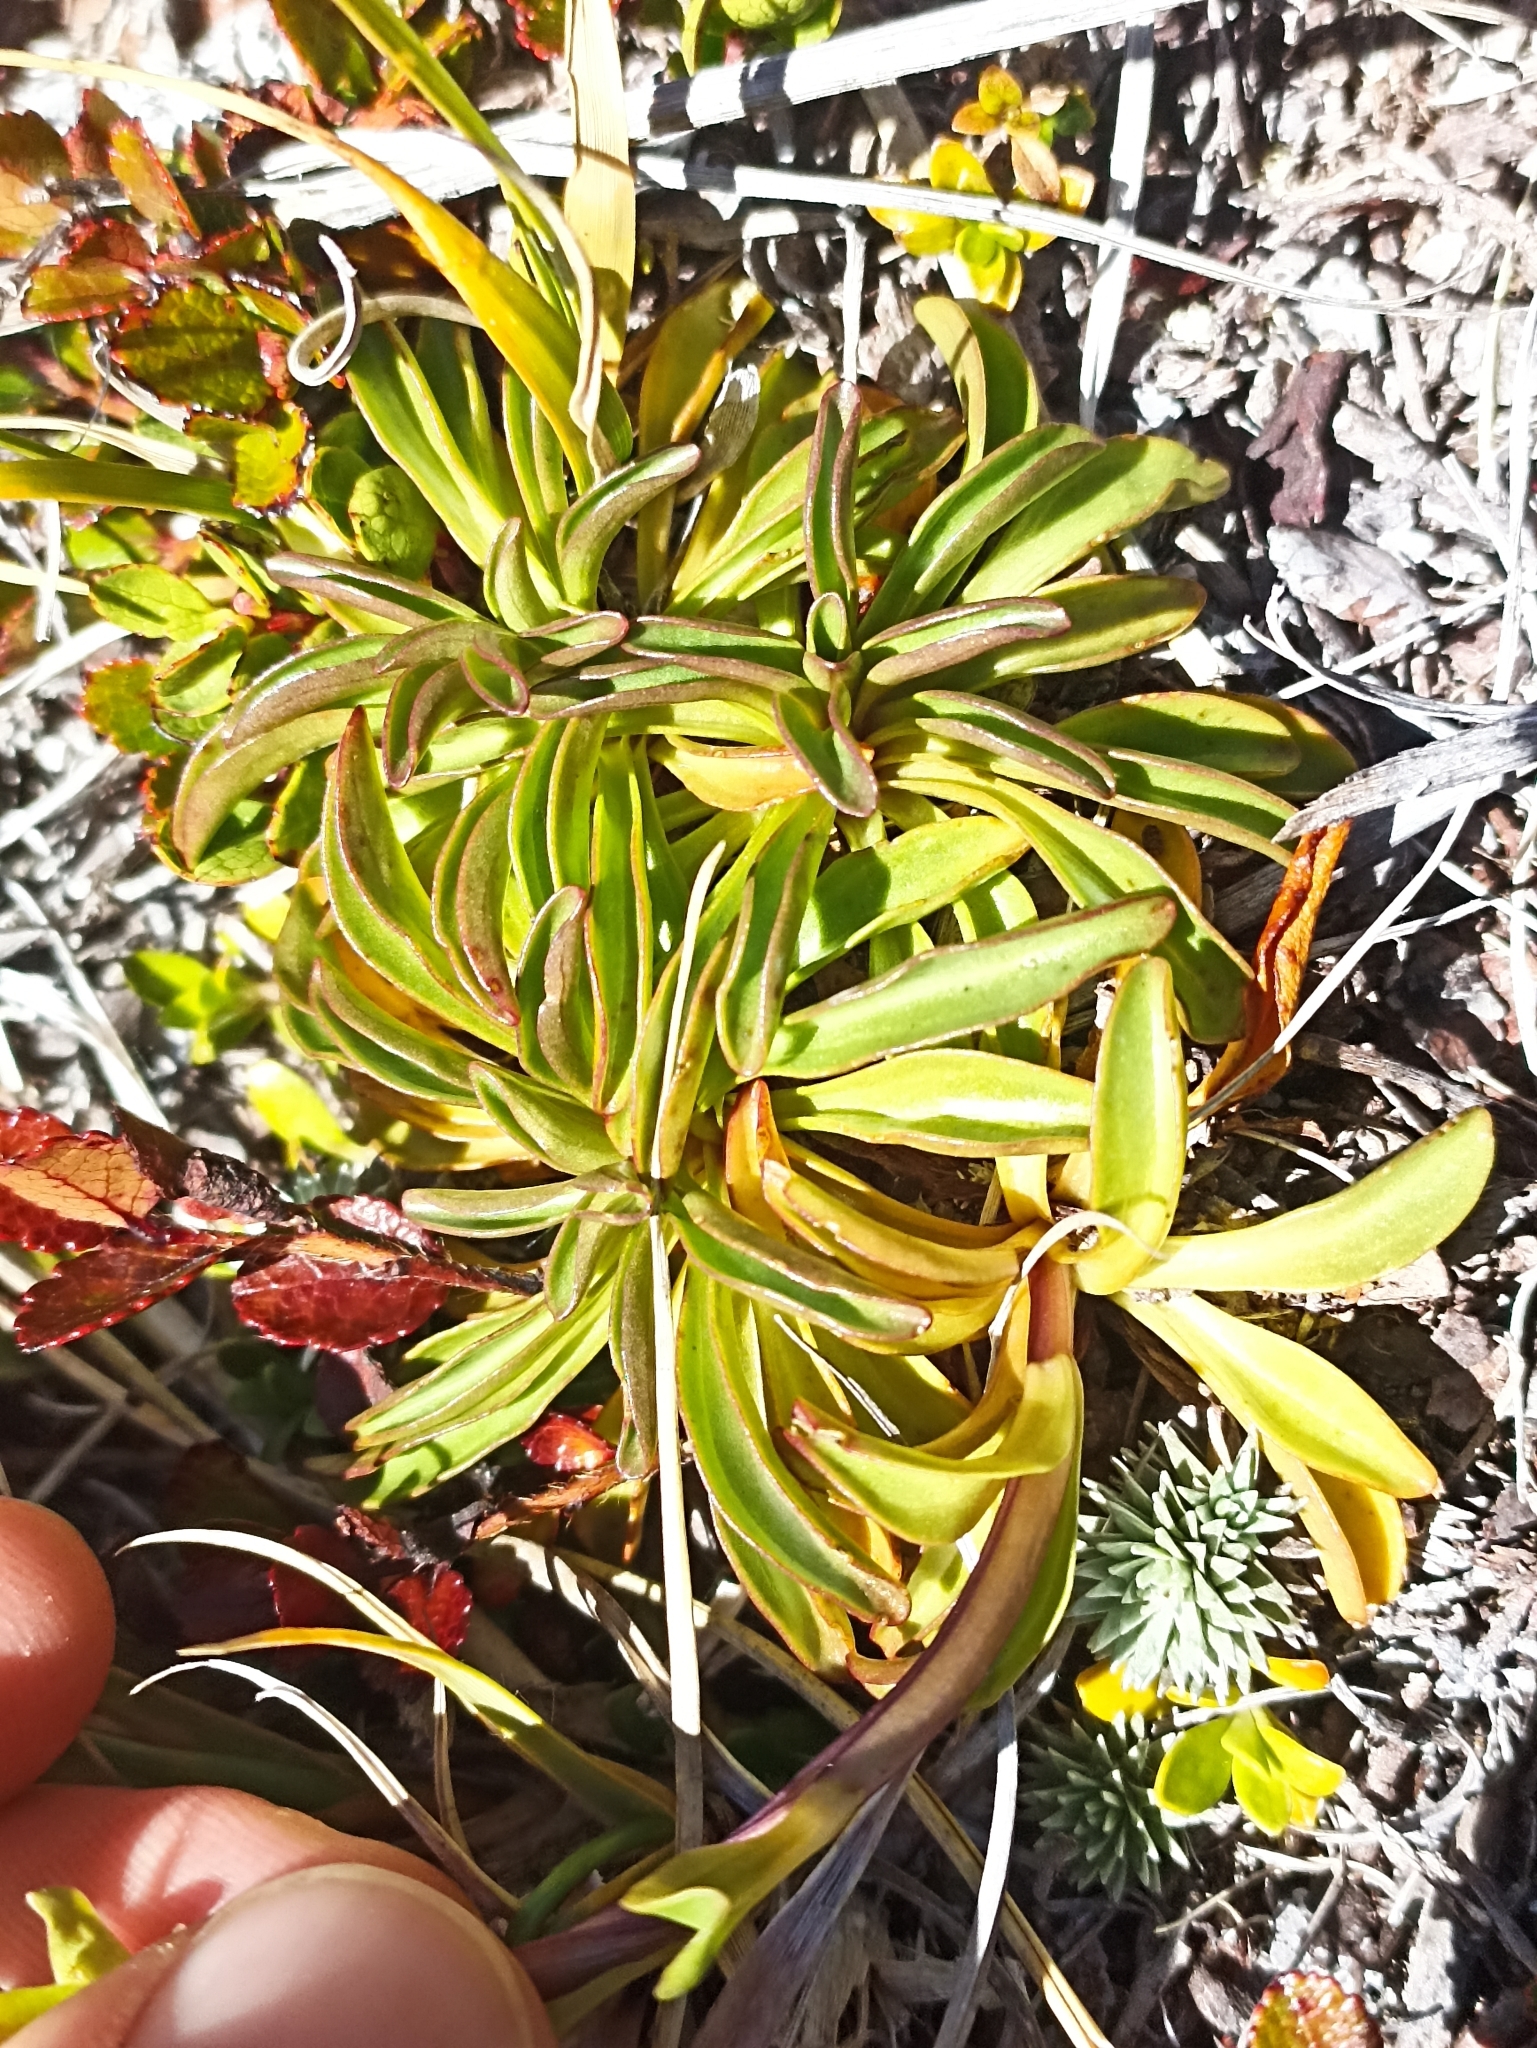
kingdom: Plantae
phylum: Tracheophyta
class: Magnoliopsida
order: Gentianales
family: Gentianaceae
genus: Gentianella
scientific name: Gentianella bellidifolia
